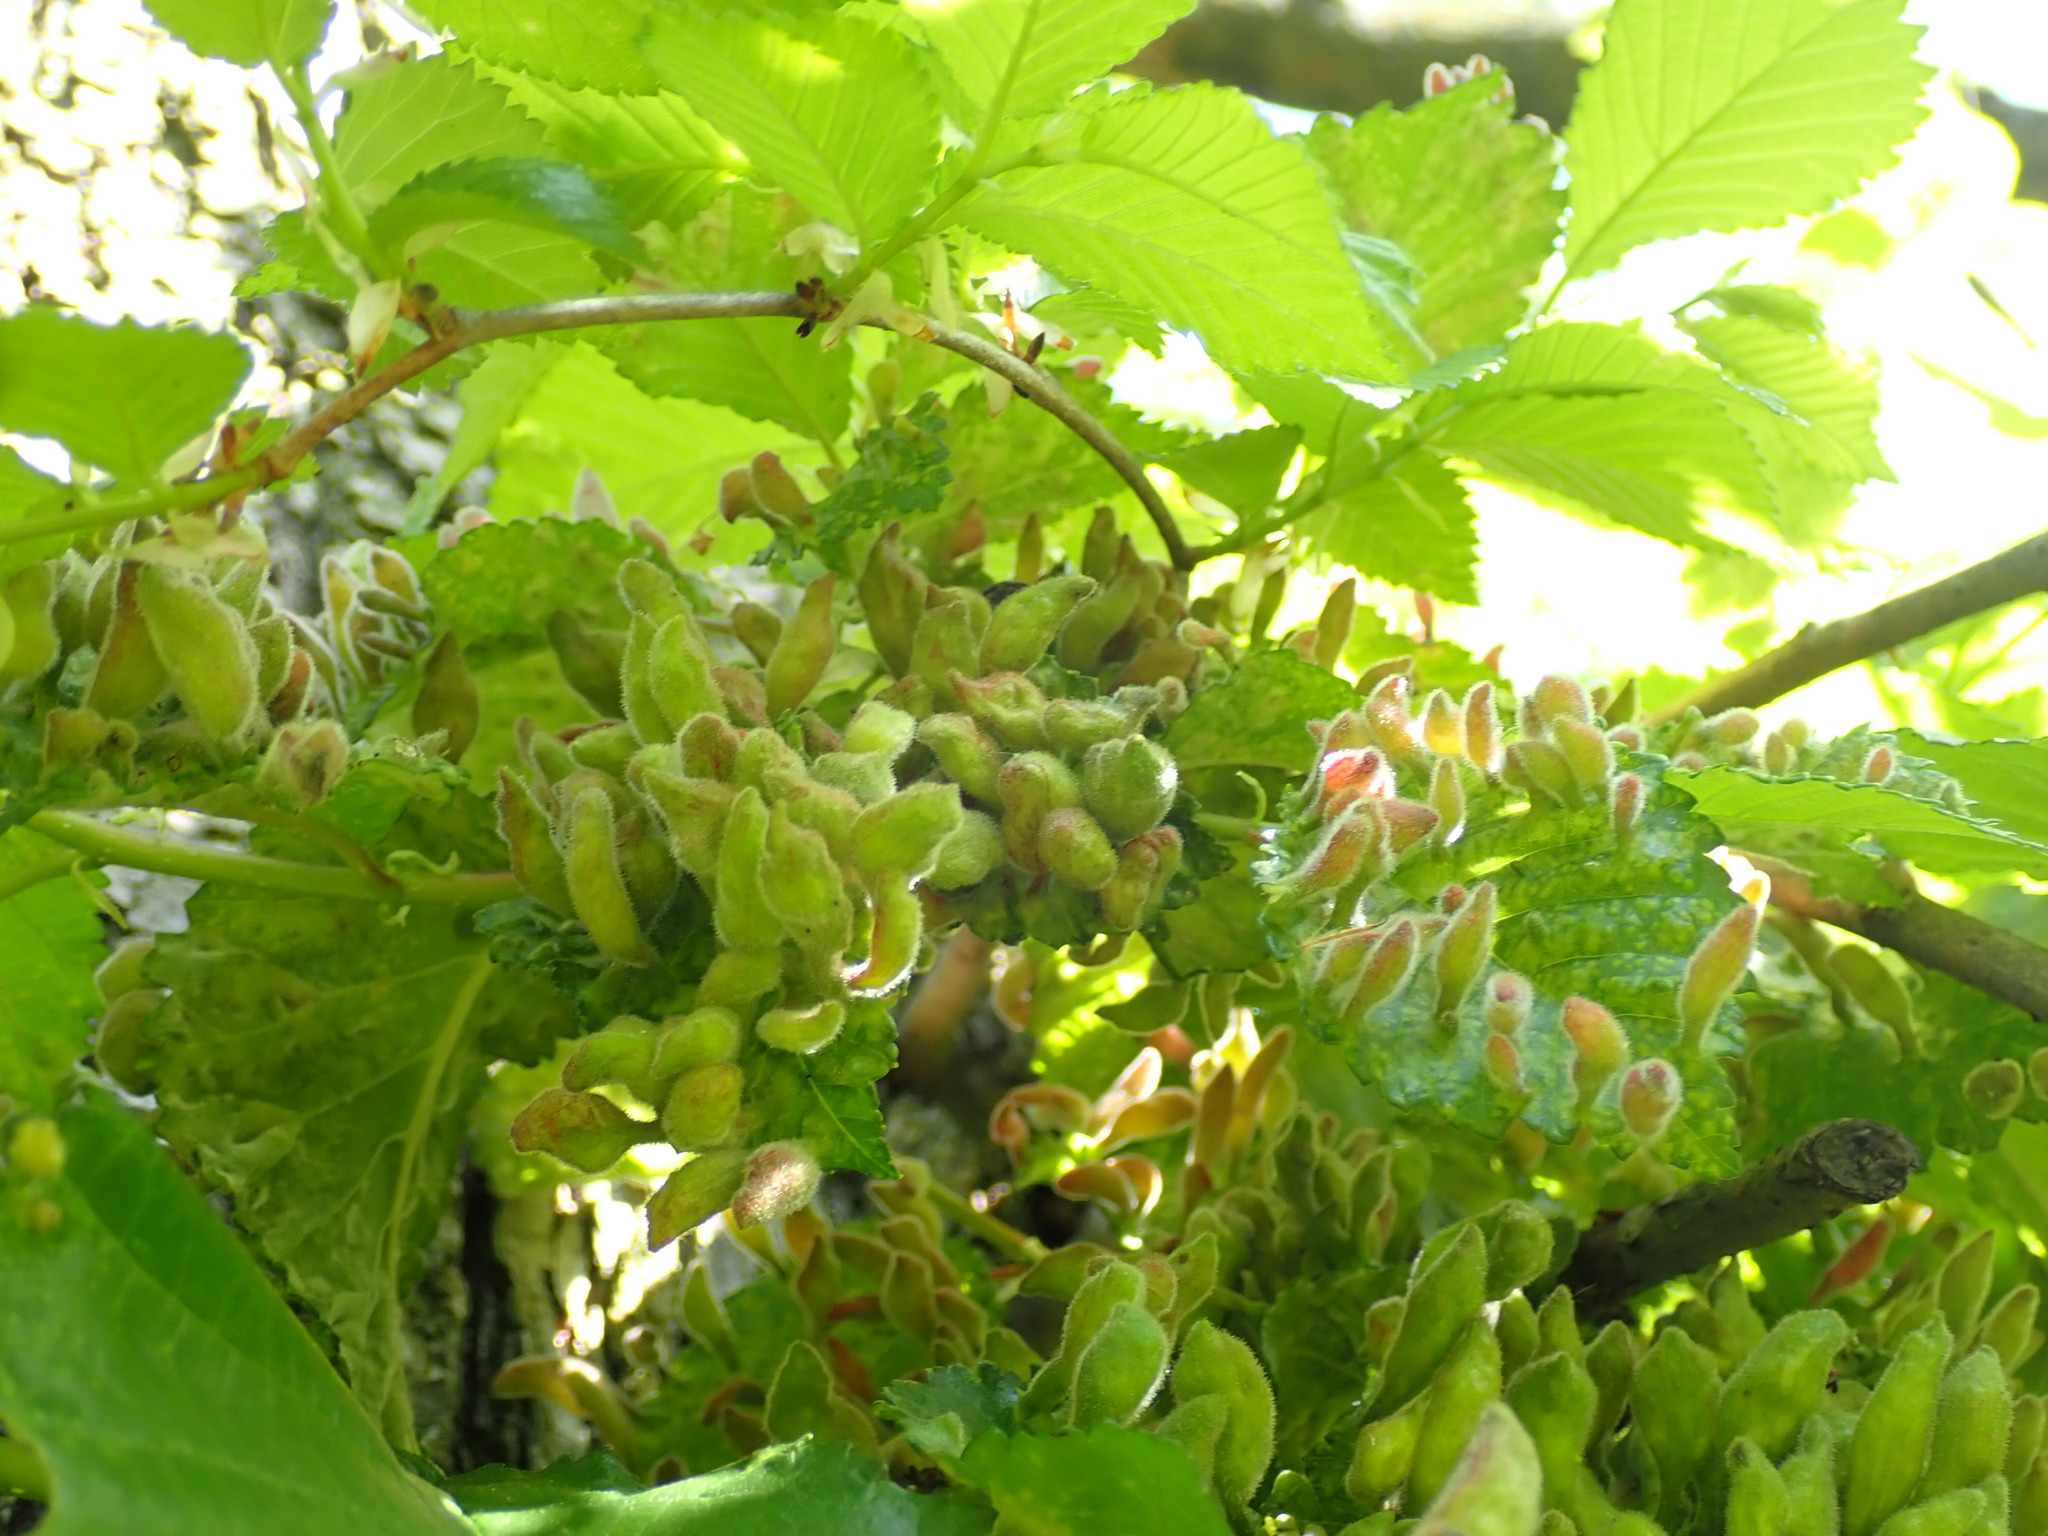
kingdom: Animalia
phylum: Arthropoda
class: Insecta
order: Hemiptera
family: Aphididae
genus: Tetraneura
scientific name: Tetraneura nigriabdominalis
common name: Aphid
